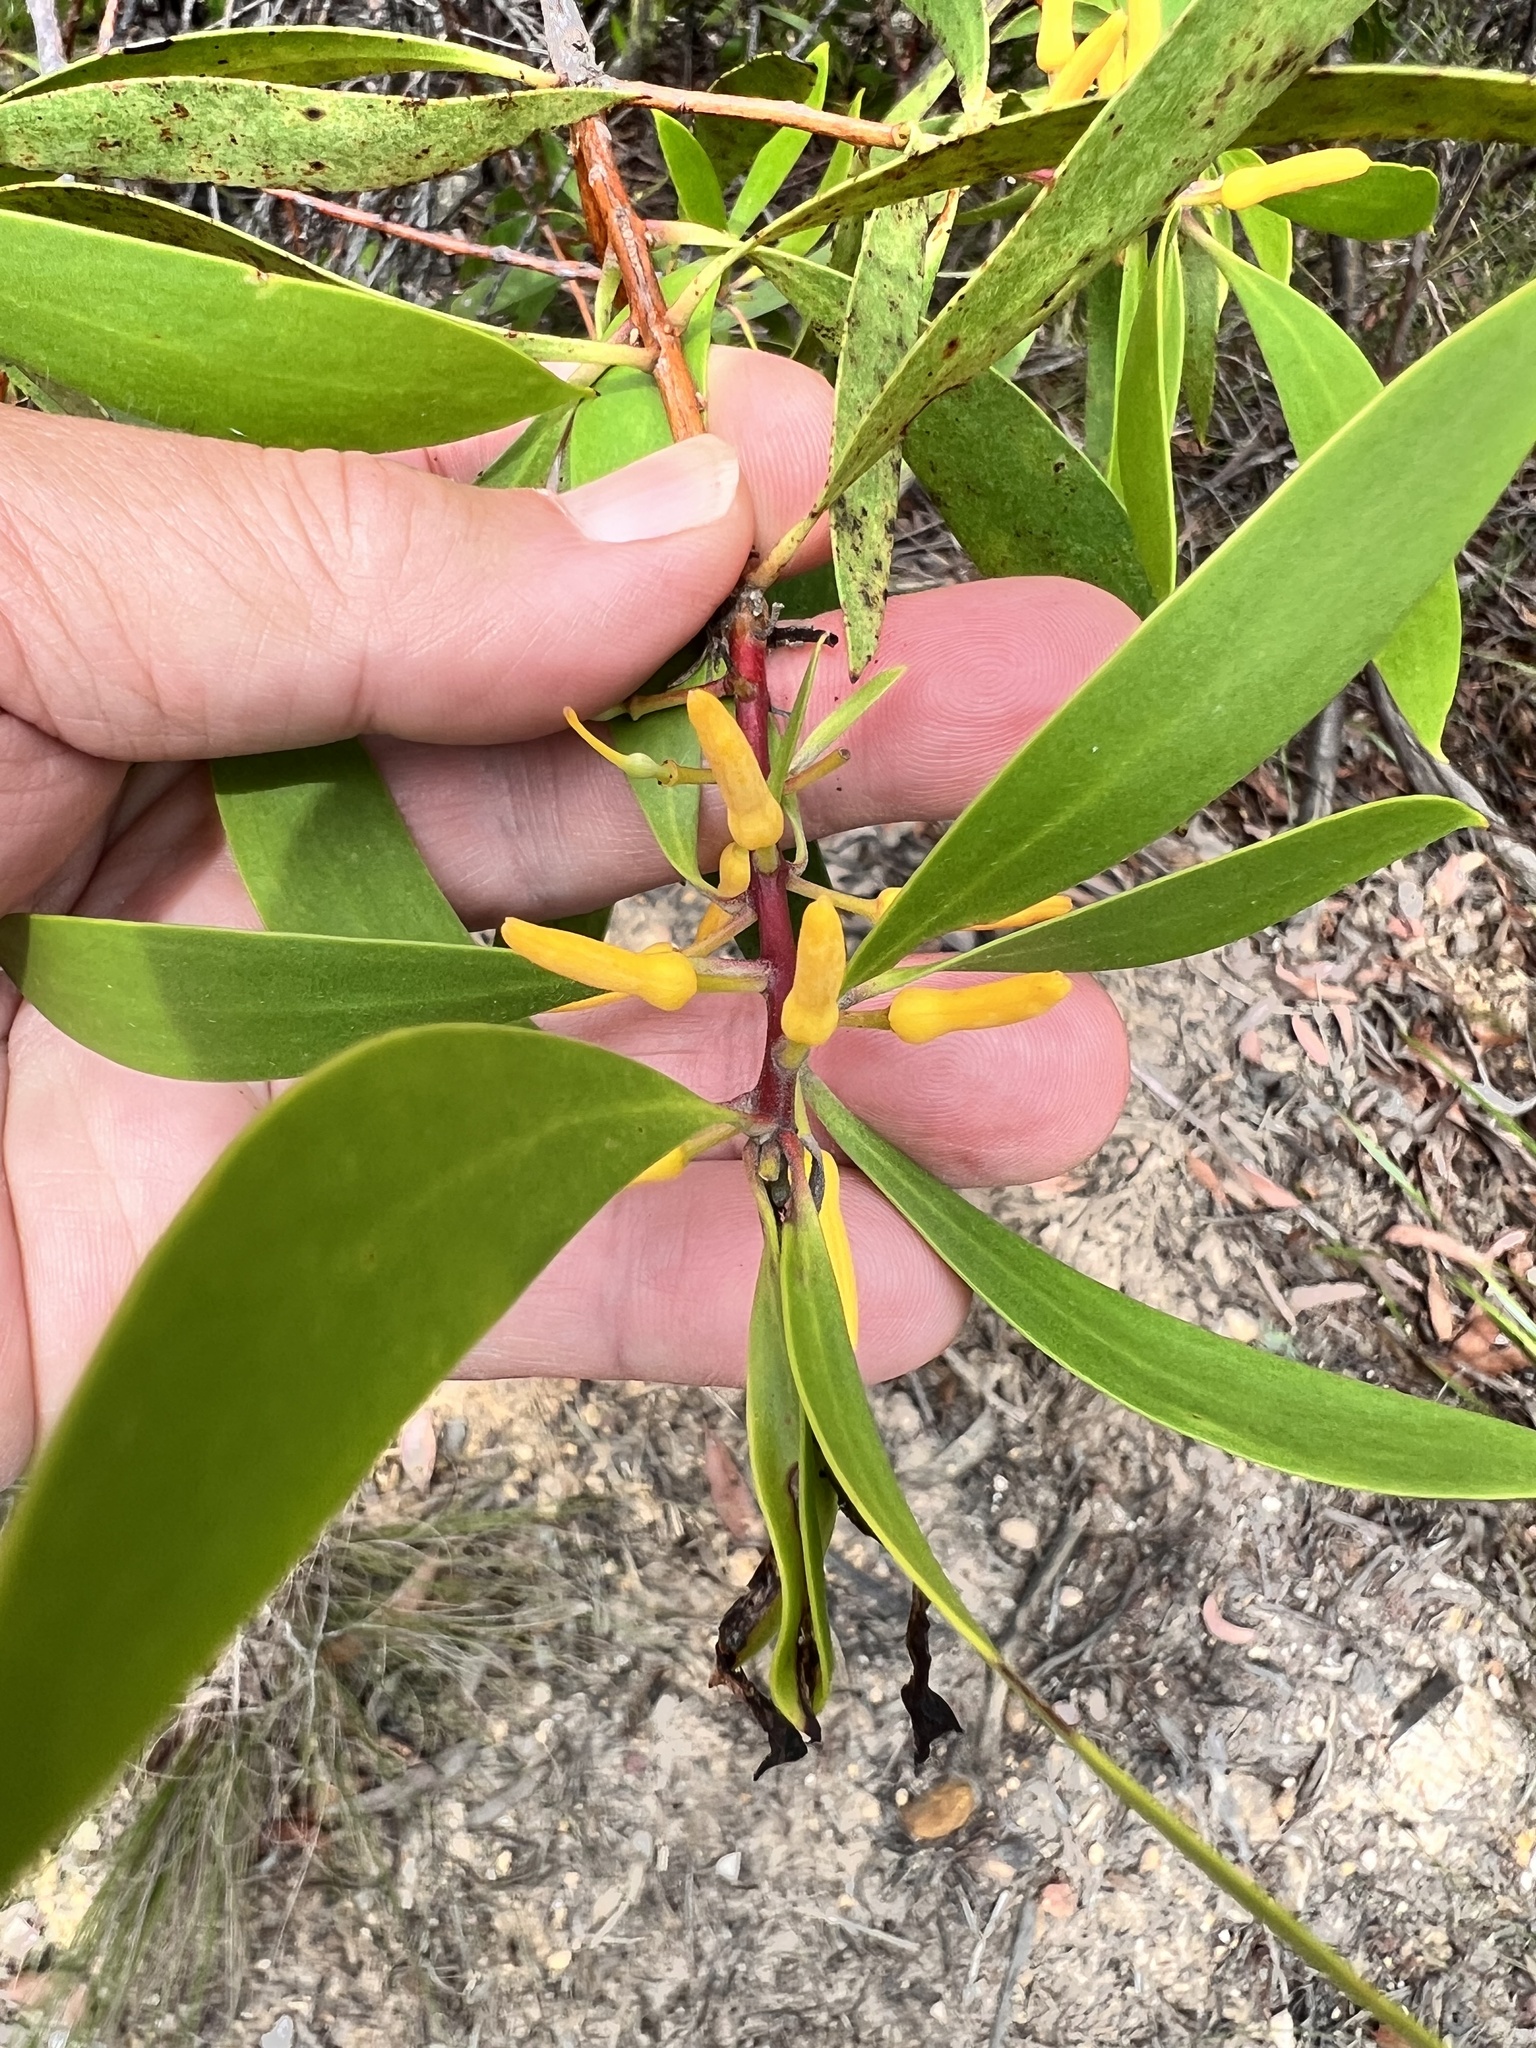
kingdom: Plantae
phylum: Tracheophyta
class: Magnoliopsida
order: Proteales
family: Proteaceae
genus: Persoonia
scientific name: Persoonia levis
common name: Smooth geebung
